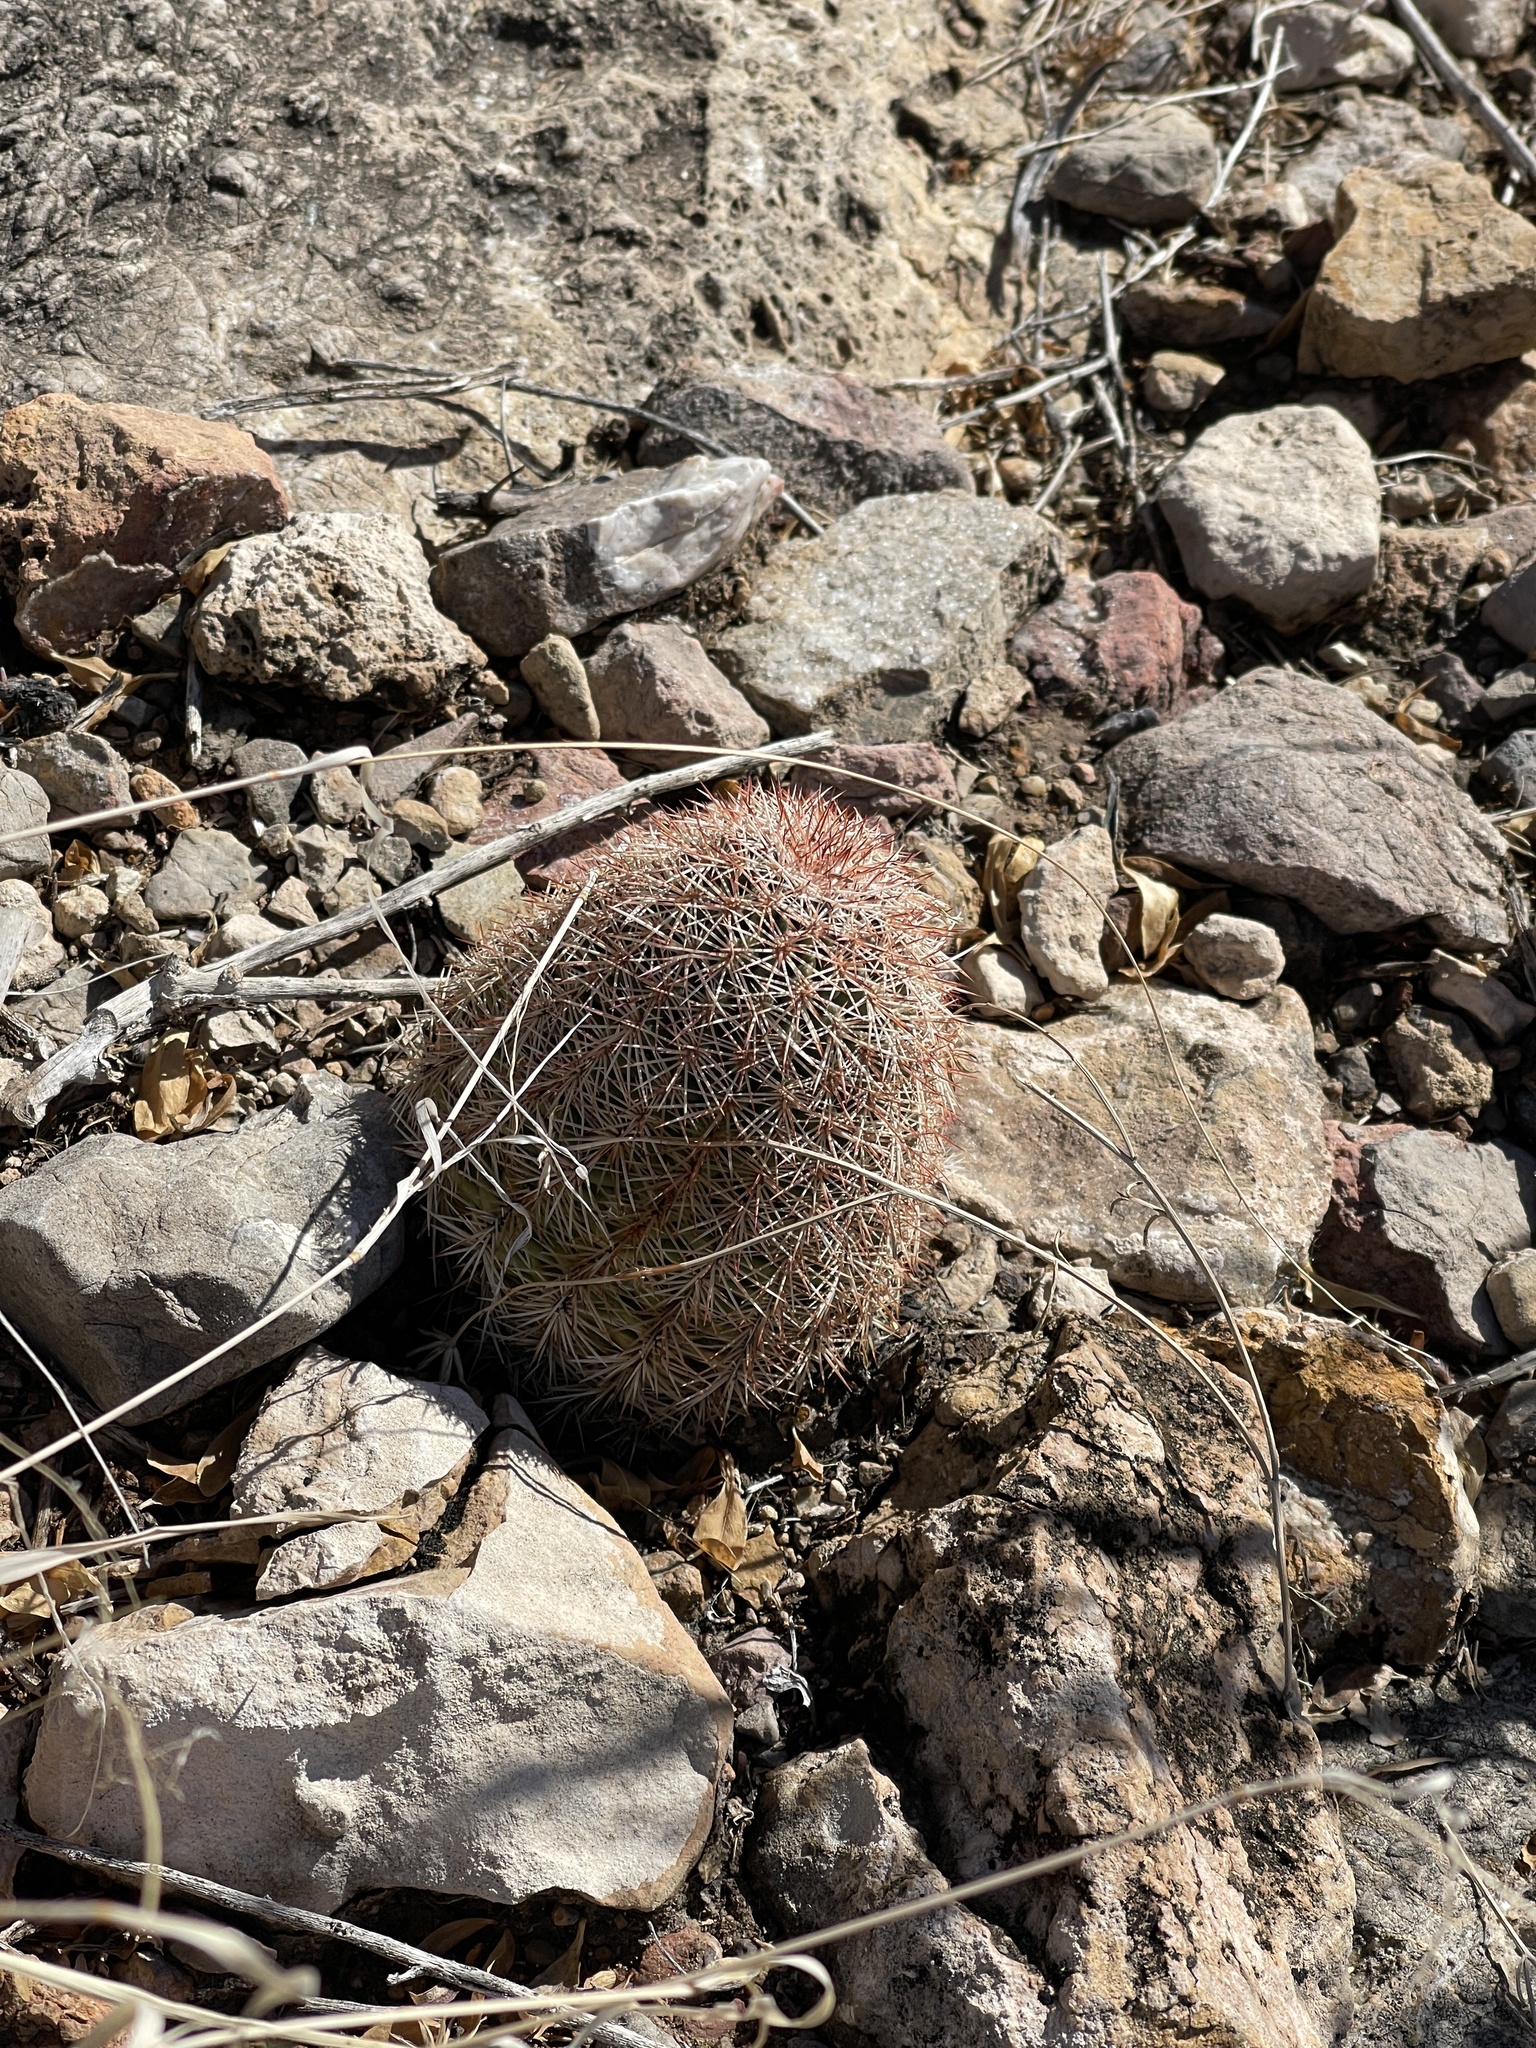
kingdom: Plantae
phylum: Tracheophyta
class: Magnoliopsida
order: Caryophyllales
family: Cactaceae
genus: Echinocereus
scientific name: Echinocereus dasyacanthus
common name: Spiny hedgehog cactus
